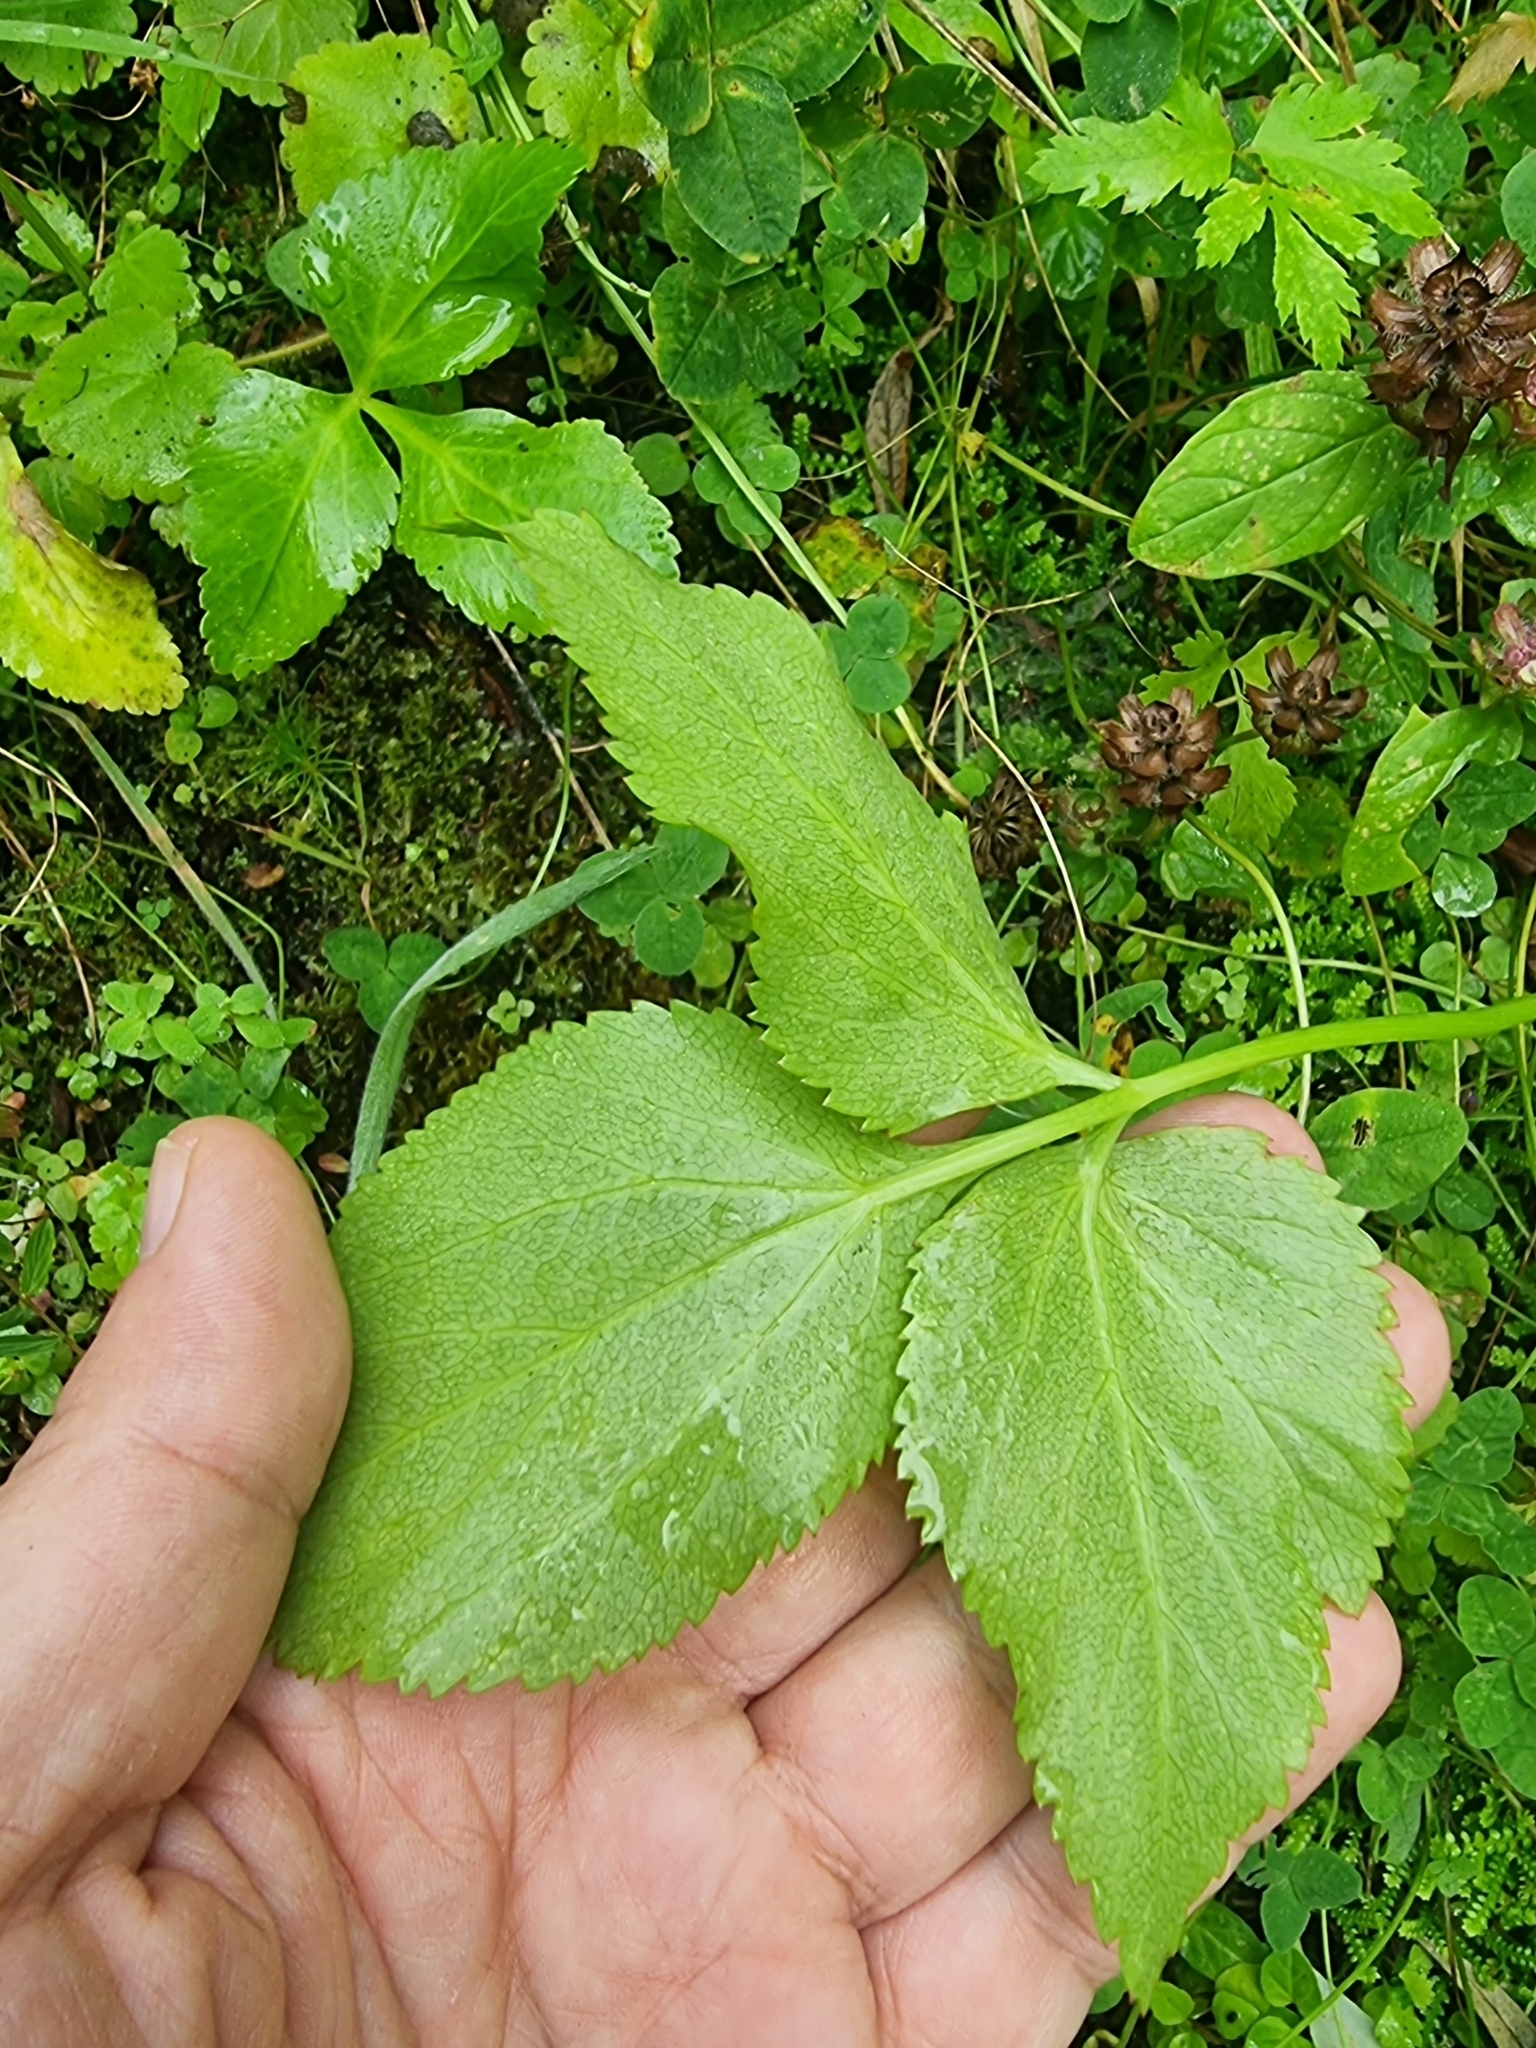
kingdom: Plantae
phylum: Tracheophyta
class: Magnoliopsida
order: Apiales
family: Apiaceae
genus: Imperatoria
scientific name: Imperatoria lowei
